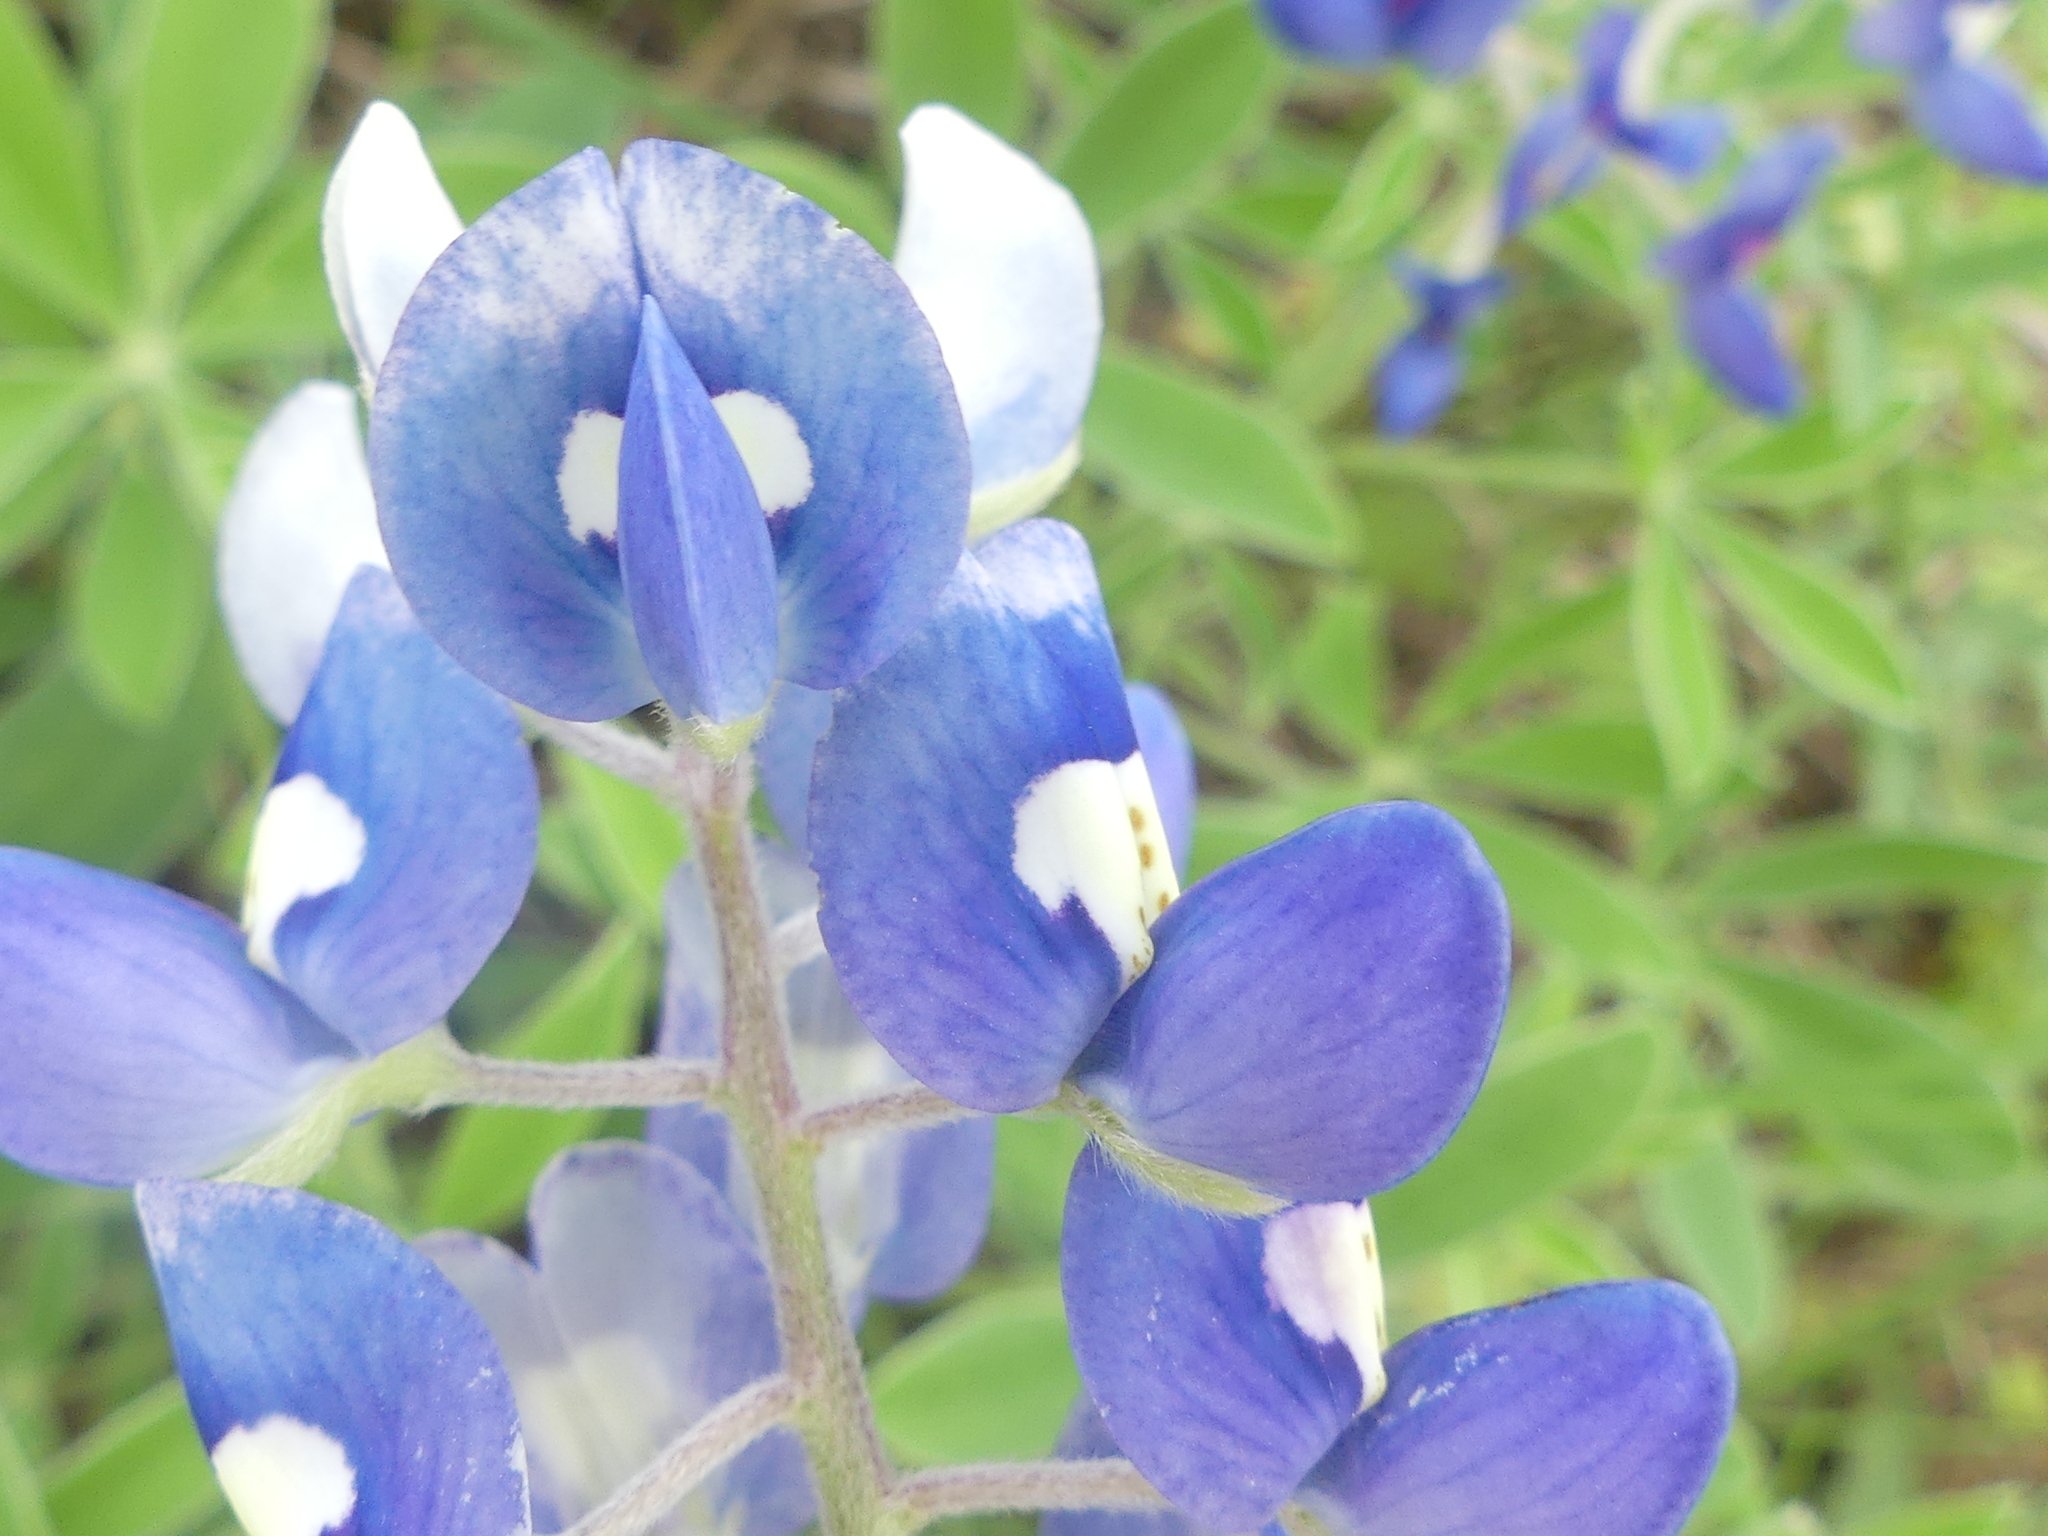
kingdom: Plantae
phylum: Tracheophyta
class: Magnoliopsida
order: Fabales
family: Fabaceae
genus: Lupinus
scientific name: Lupinus texensis
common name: Texas bluebonnet
